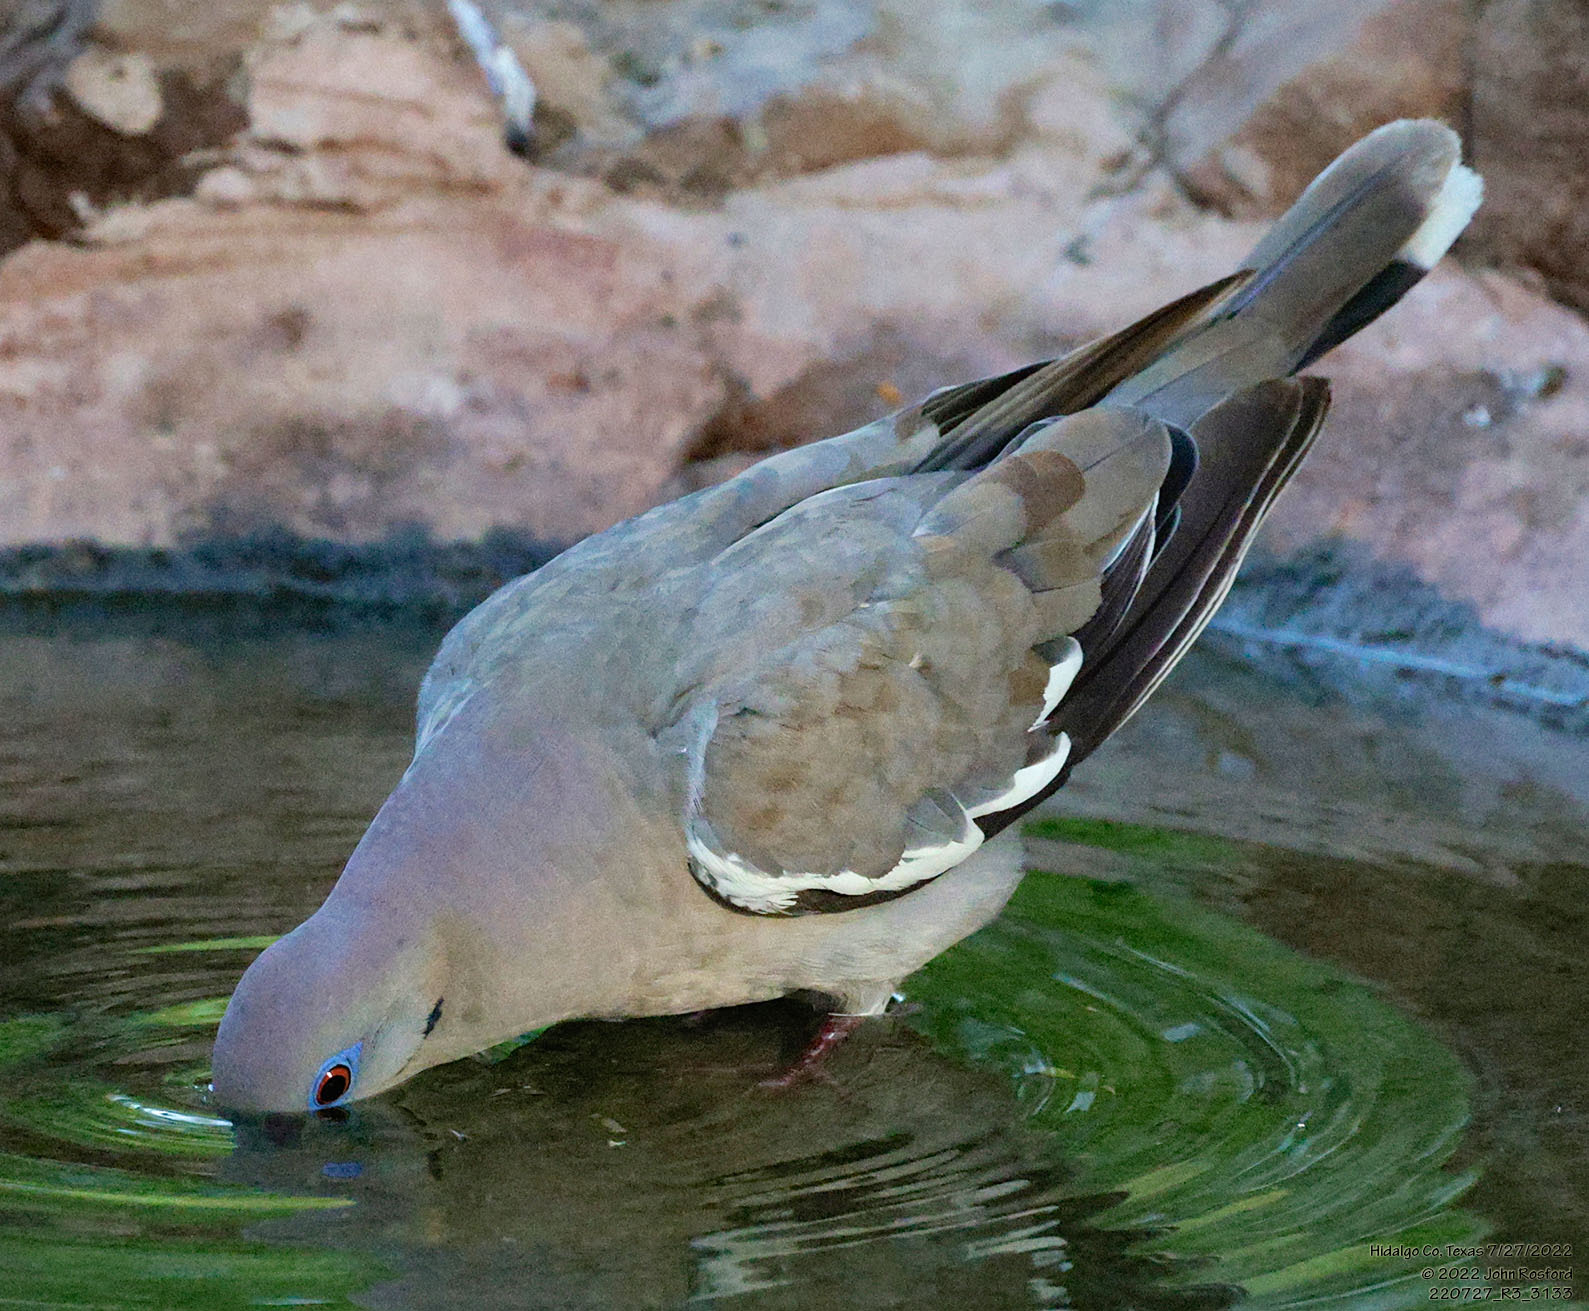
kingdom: Animalia
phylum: Chordata
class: Aves
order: Columbiformes
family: Columbidae
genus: Zenaida
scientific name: Zenaida asiatica
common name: White-winged dove
